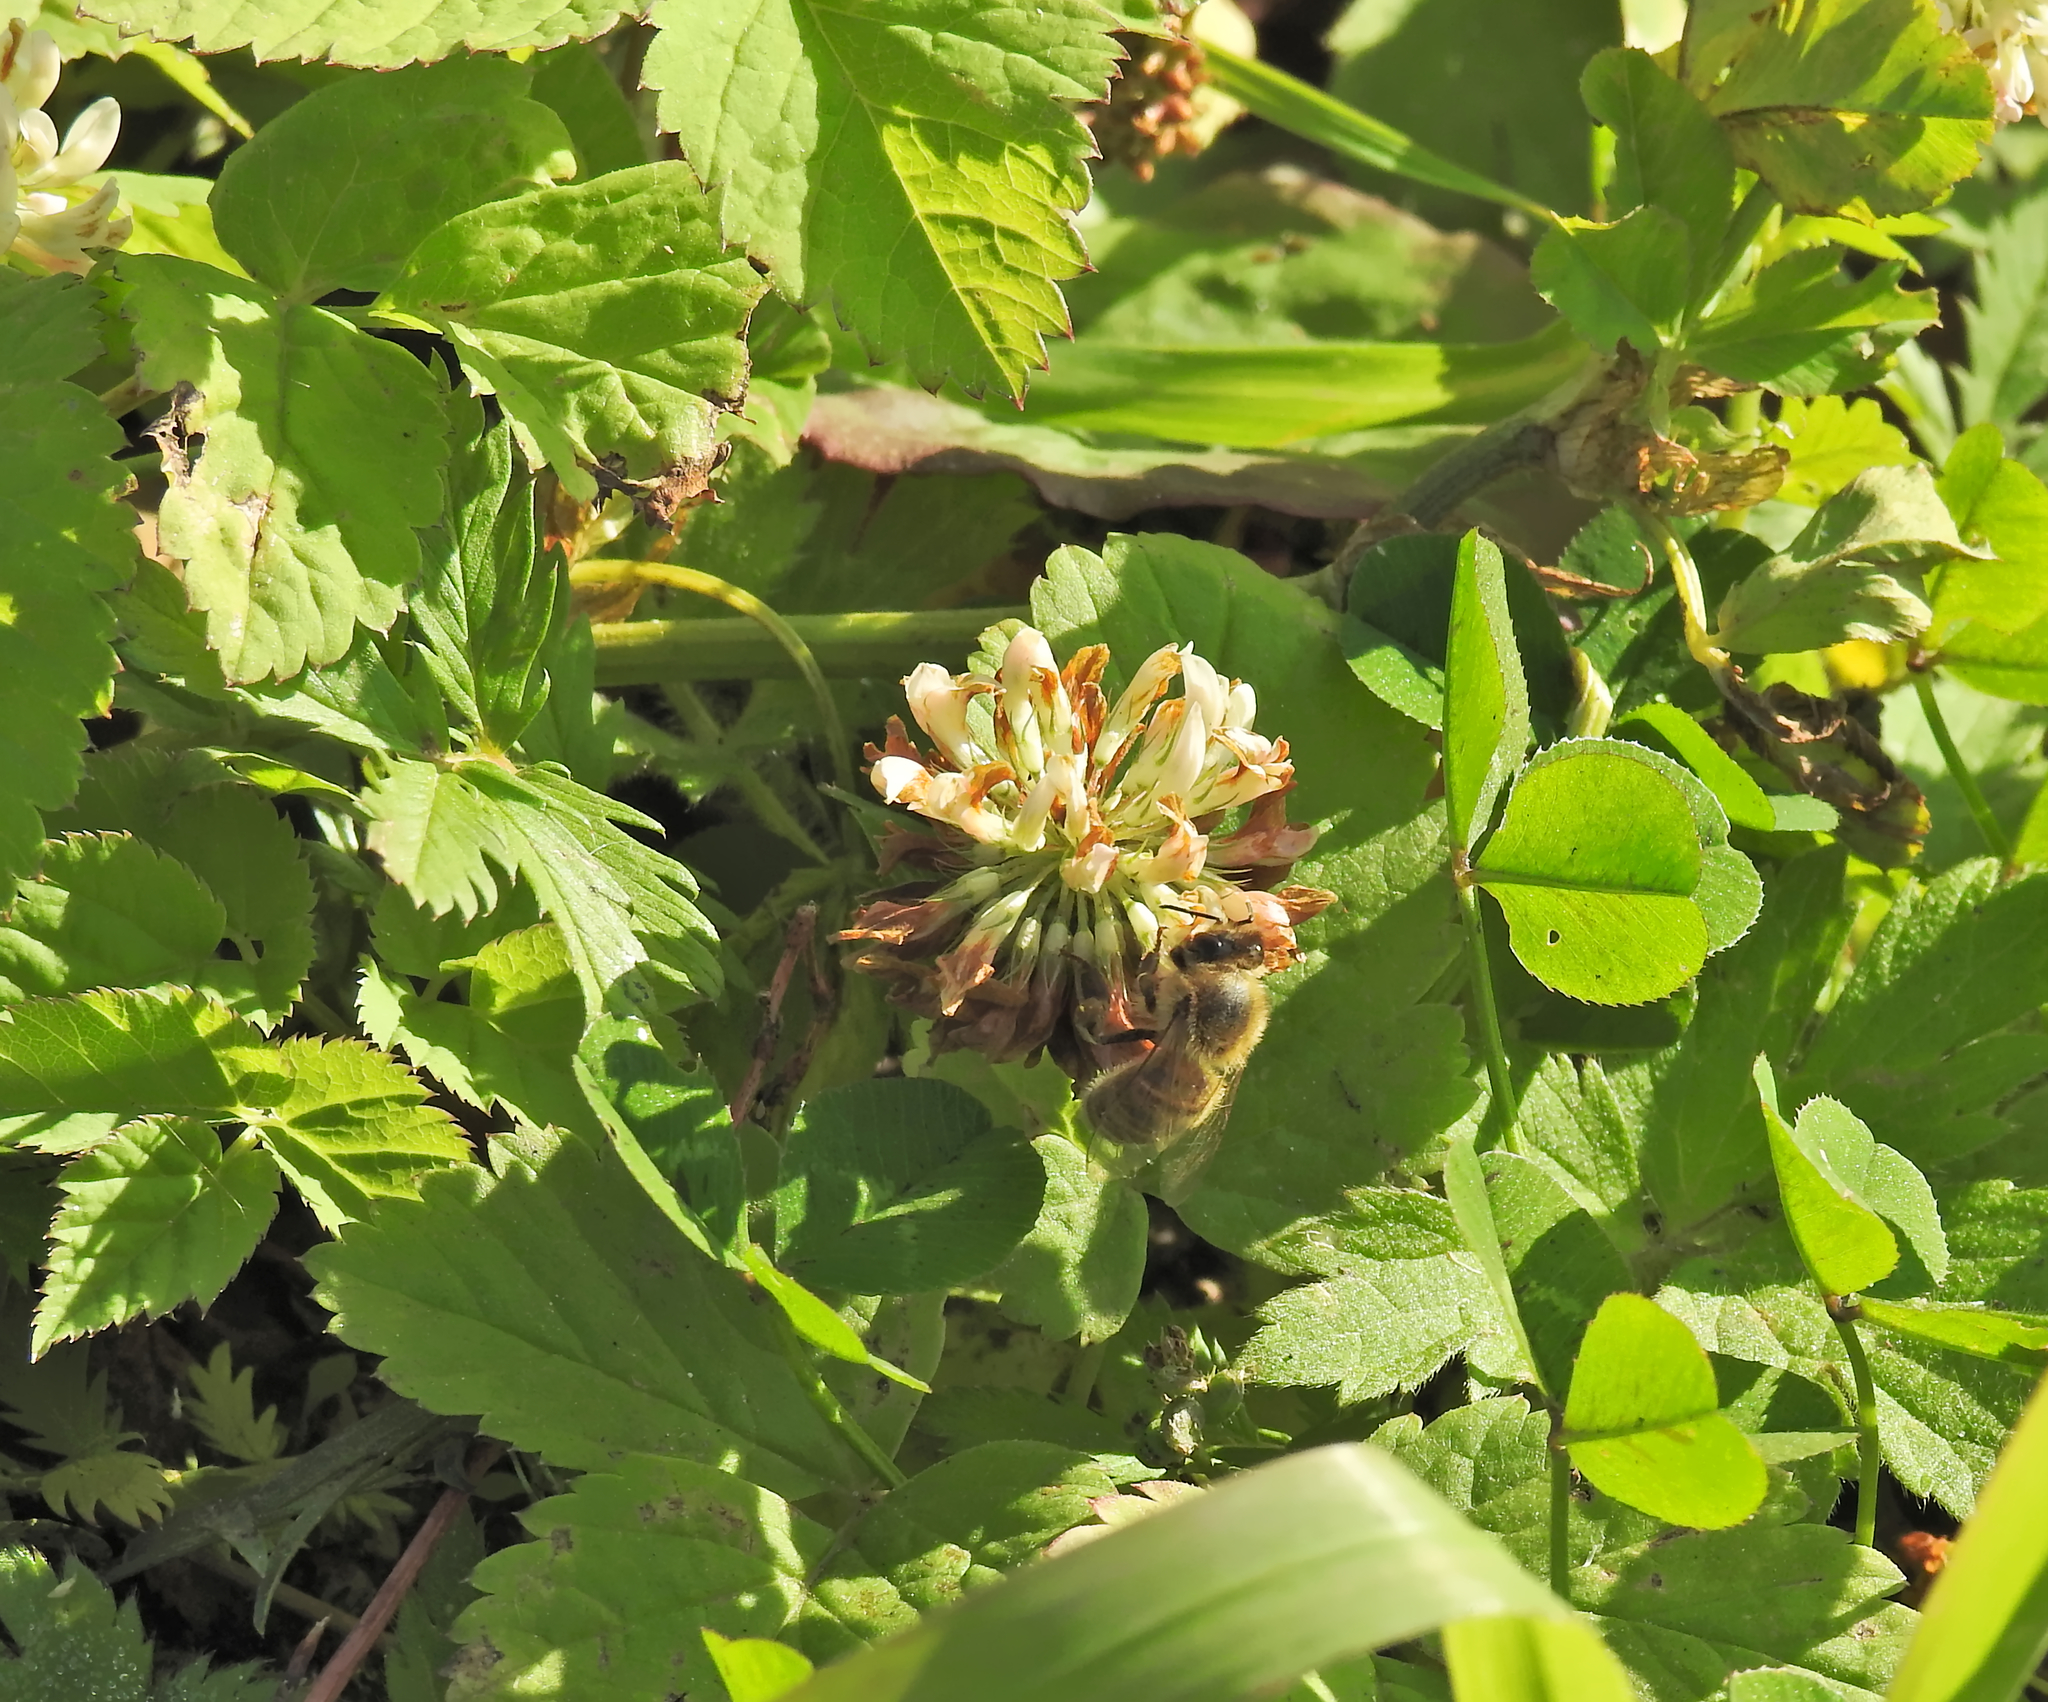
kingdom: Animalia
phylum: Arthropoda
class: Insecta
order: Hymenoptera
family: Apidae
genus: Apis
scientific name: Apis mellifera
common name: Honey bee
